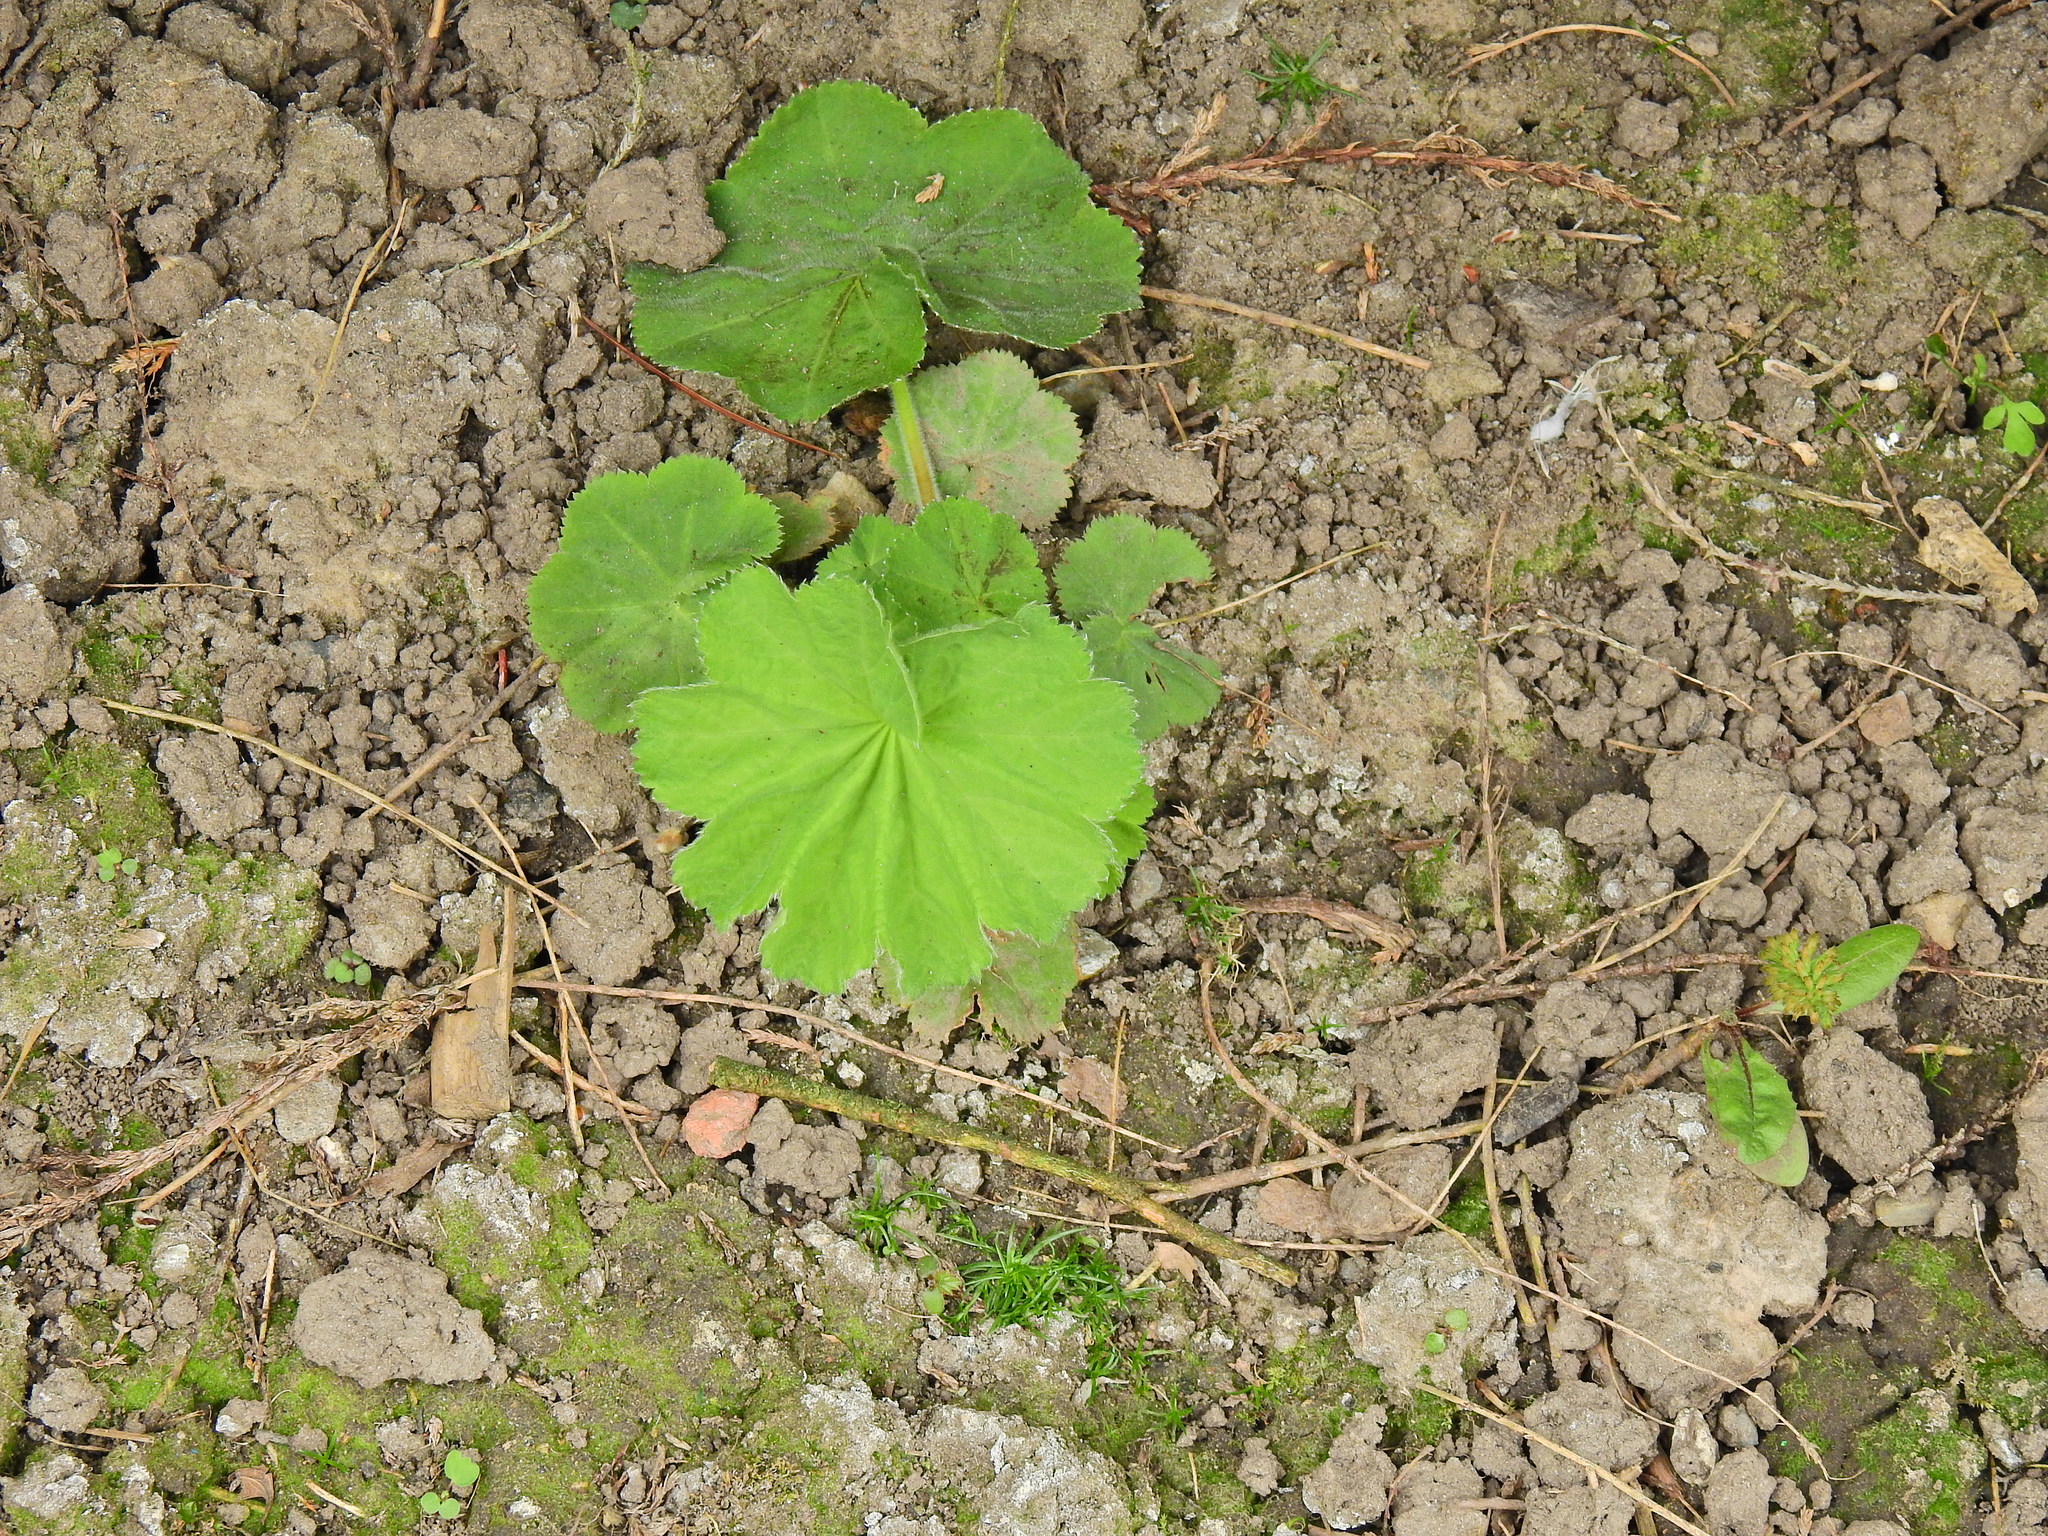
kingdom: Plantae
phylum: Tracheophyta
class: Magnoliopsida
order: Rosales
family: Rosaceae
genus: Alchemilla
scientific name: Alchemilla mollis
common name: Lady's-mantle
